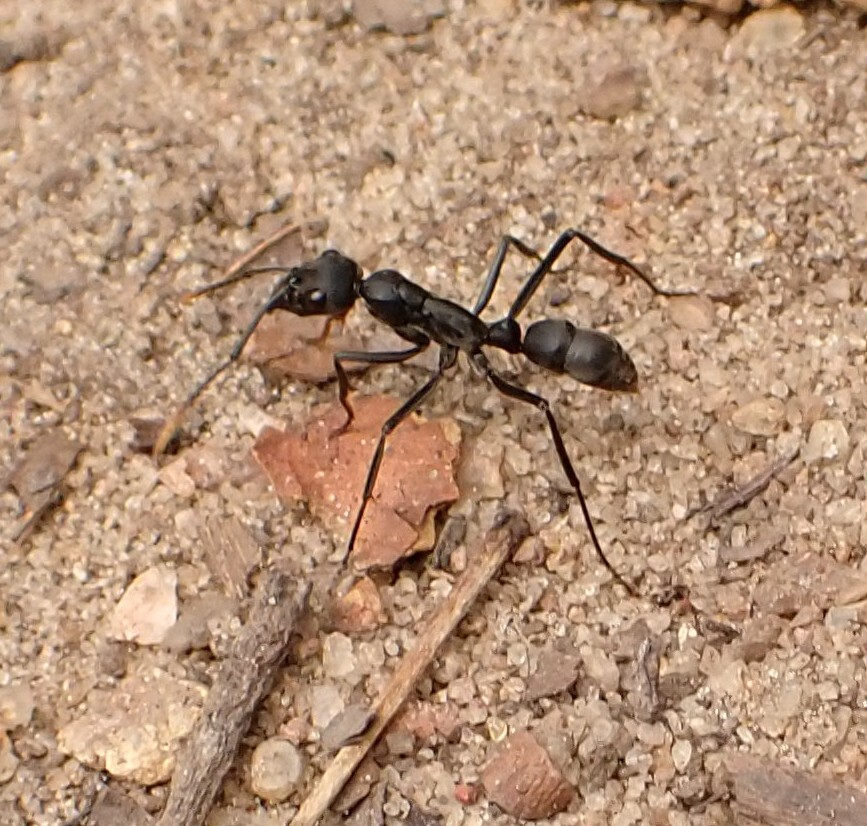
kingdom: Animalia
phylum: Arthropoda
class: Insecta
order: Hymenoptera
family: Formicidae
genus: Pachycondyla
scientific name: Pachycondyla apicalis
